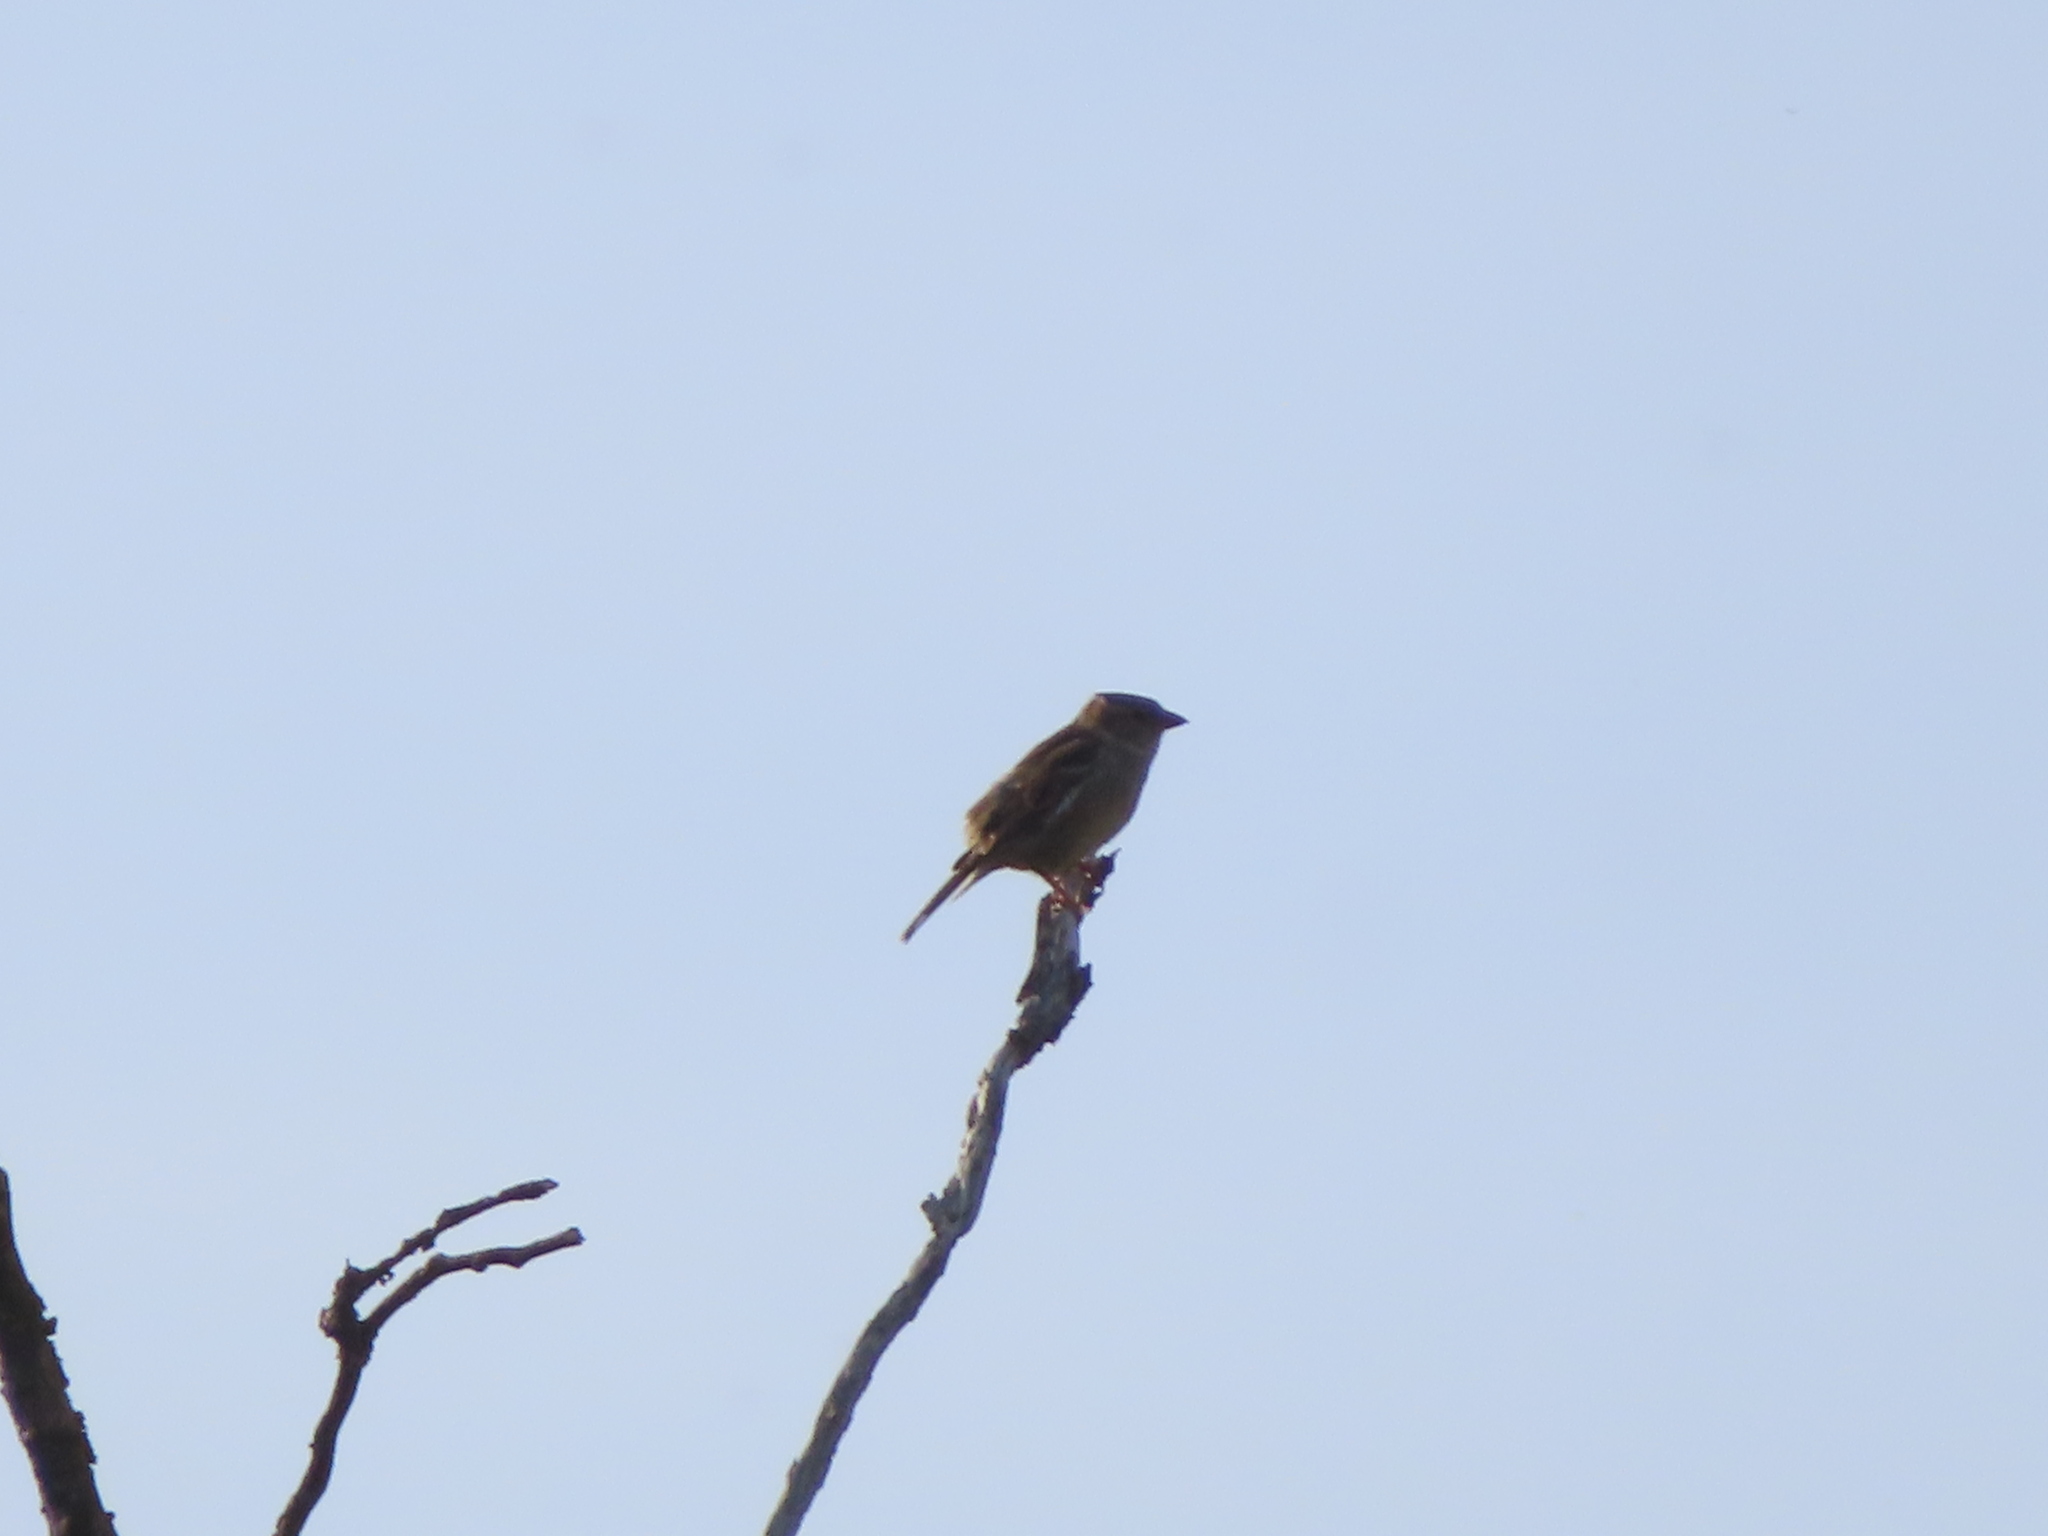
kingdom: Animalia
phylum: Chordata
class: Aves
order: Passeriformes
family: Passeridae
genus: Passer
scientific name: Passer domesticus
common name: House sparrow
